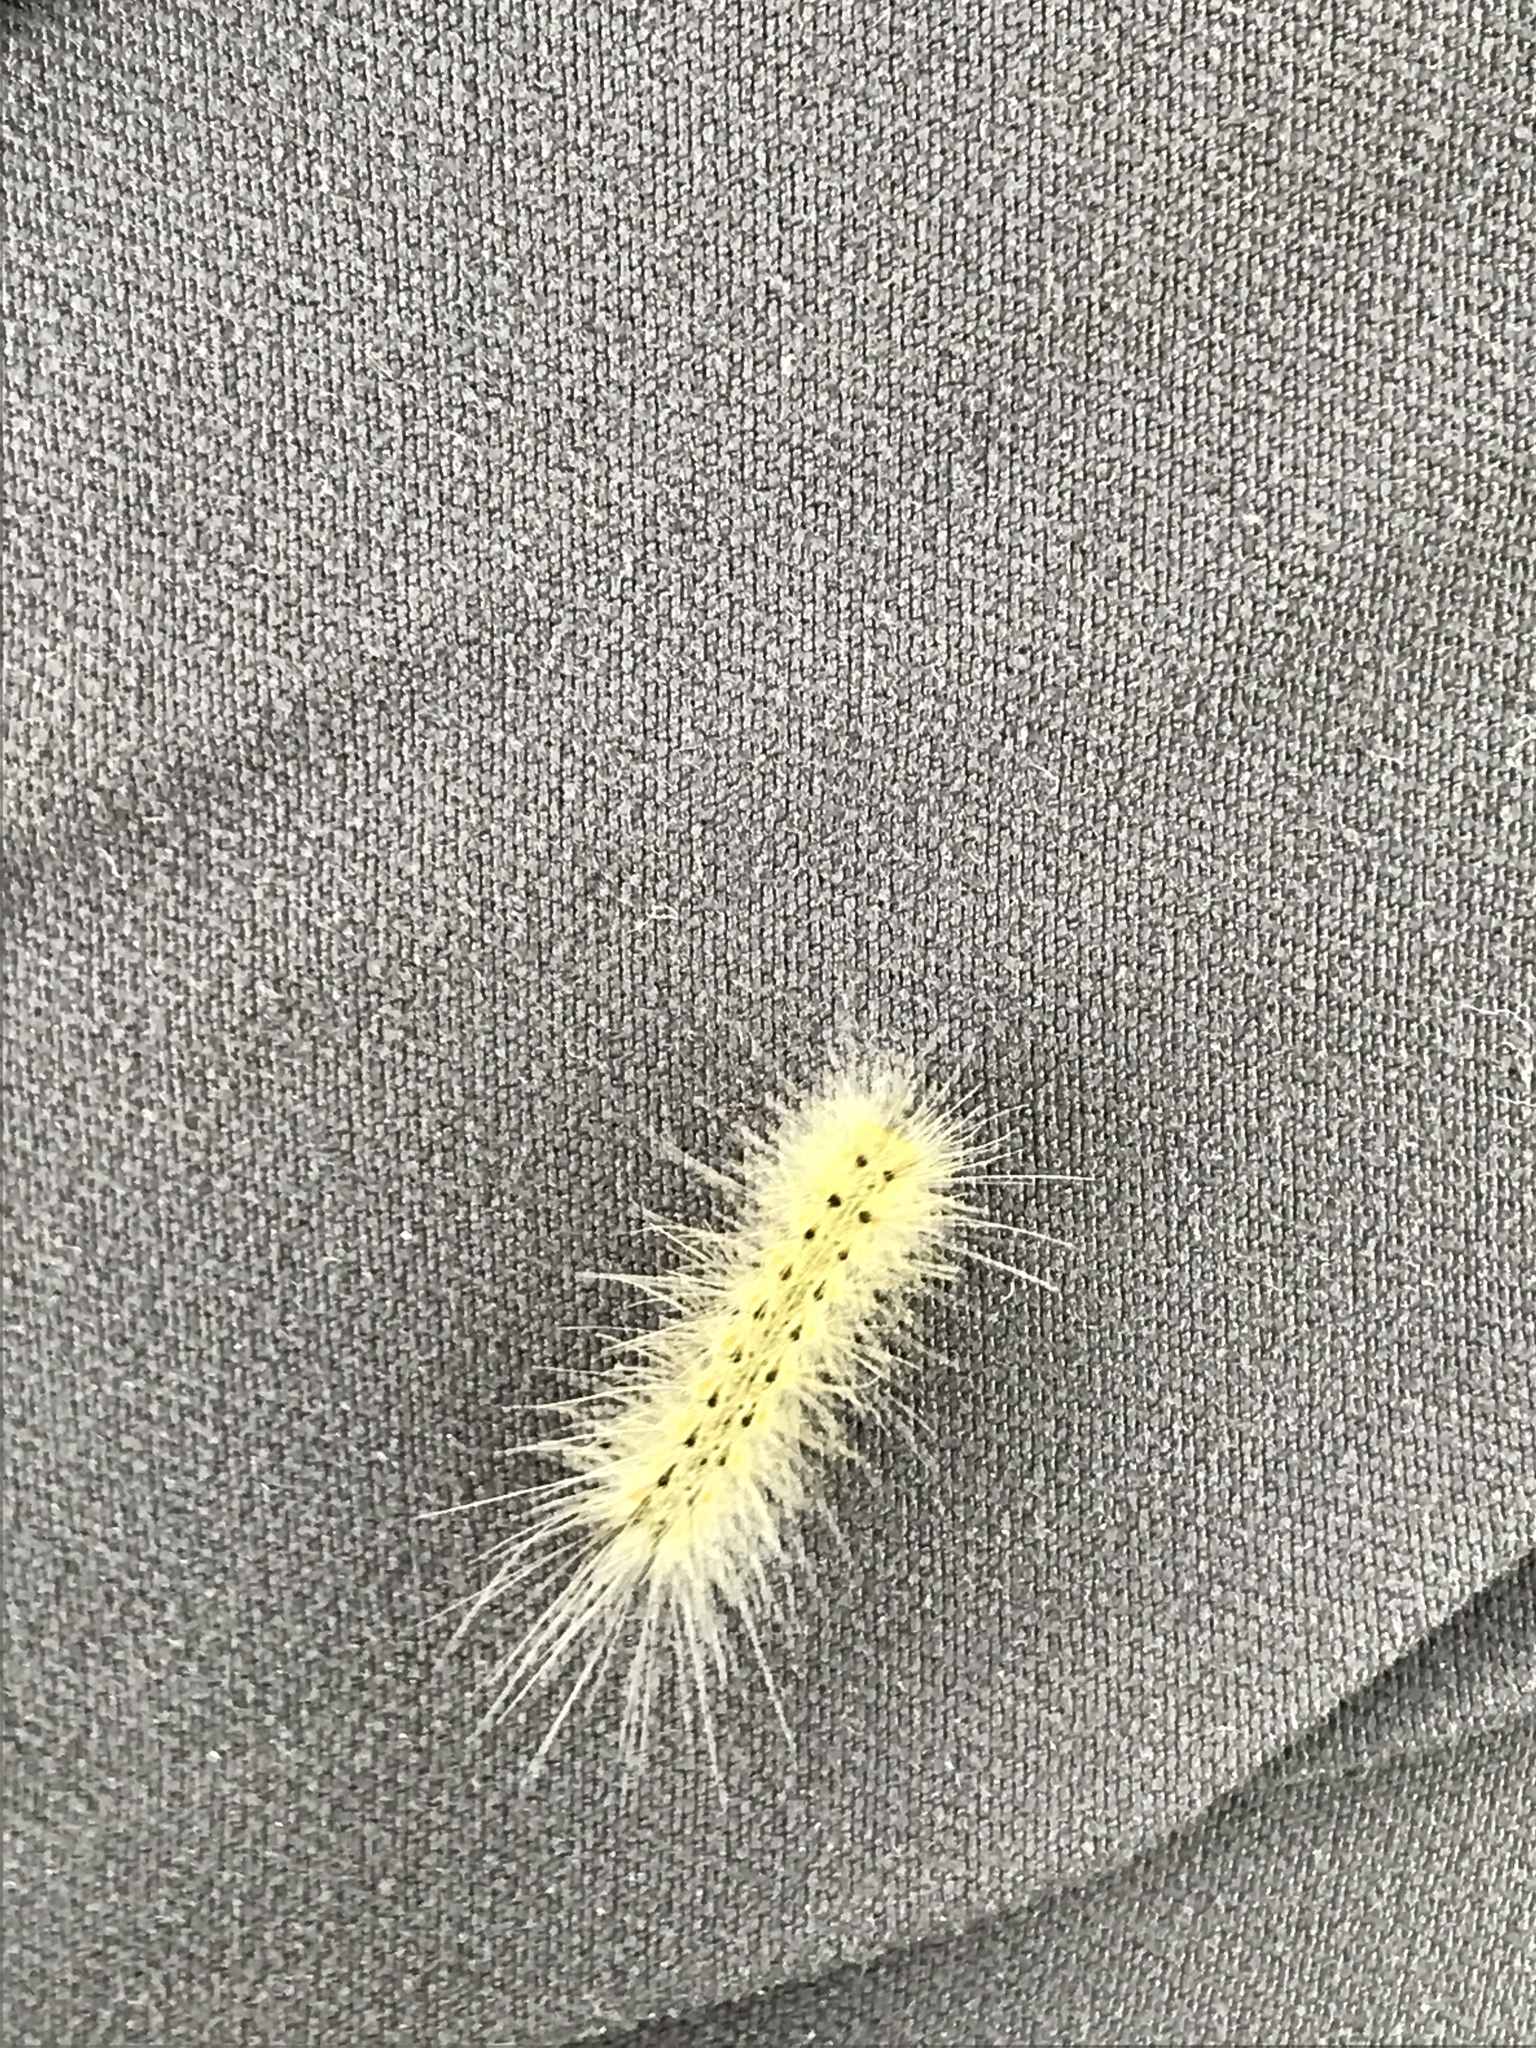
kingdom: Animalia
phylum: Arthropoda
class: Insecta
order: Lepidoptera
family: Erebidae
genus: Hyphantria
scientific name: Hyphantria cunea
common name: American white moth
